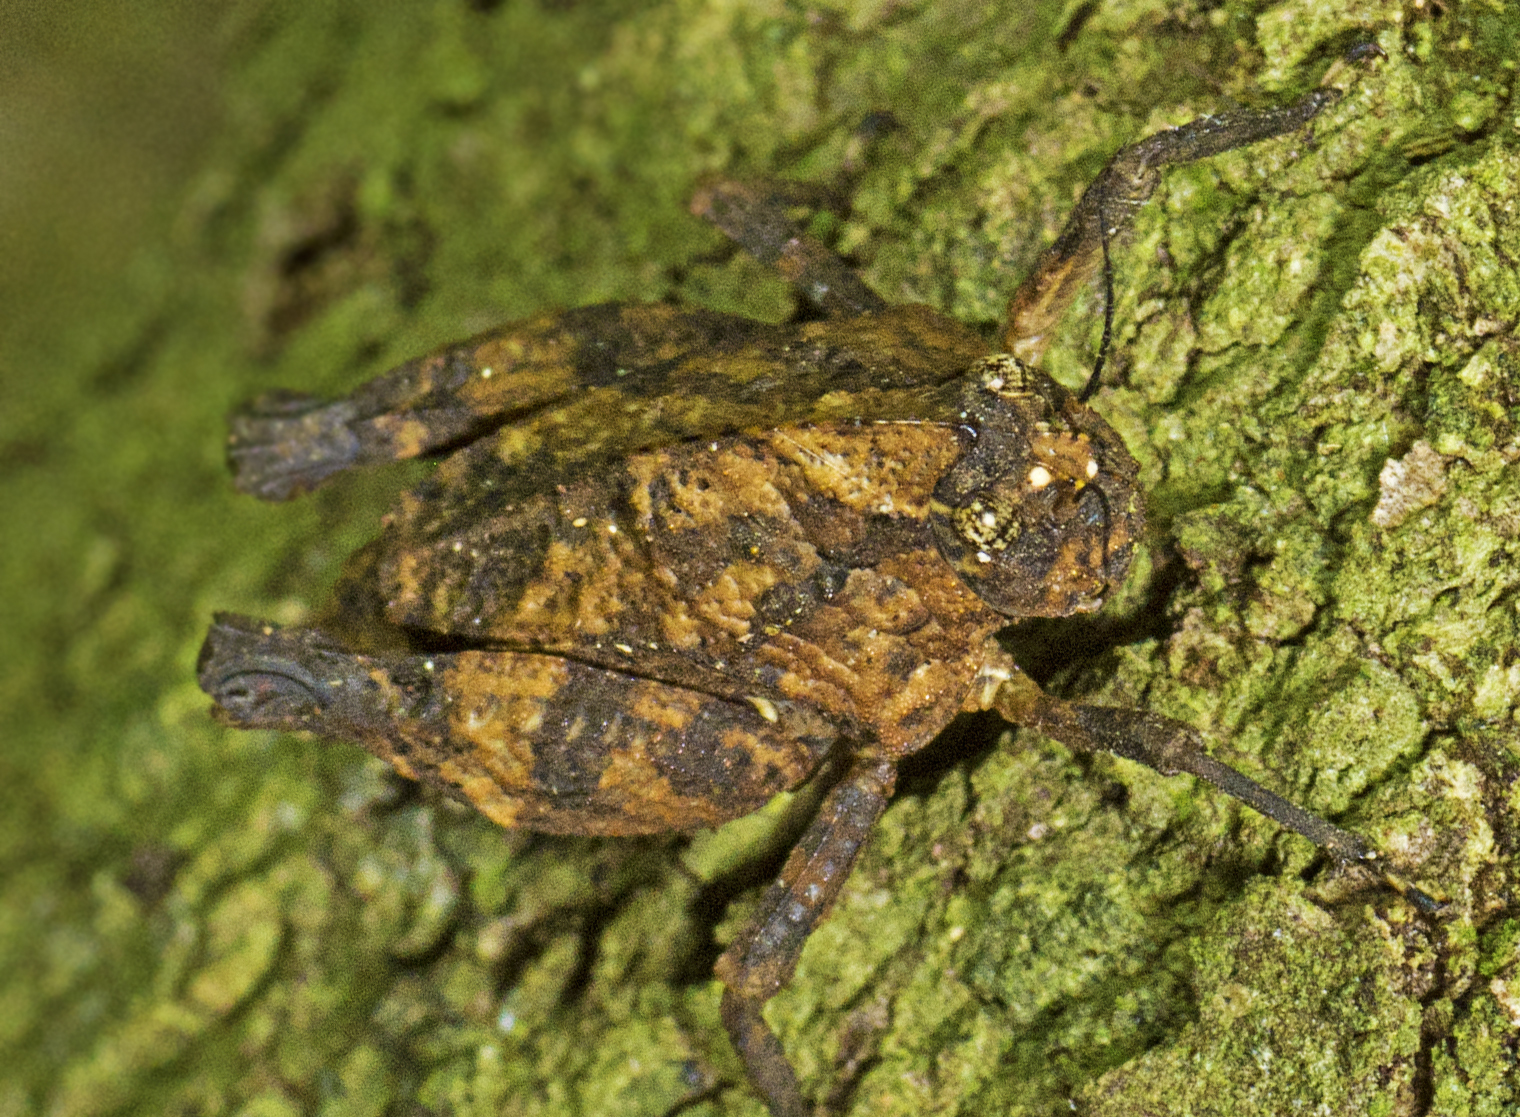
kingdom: Animalia
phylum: Arthropoda
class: Insecta
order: Orthoptera
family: Tetrigidae
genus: Vingselina
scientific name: Vingselina crassa
